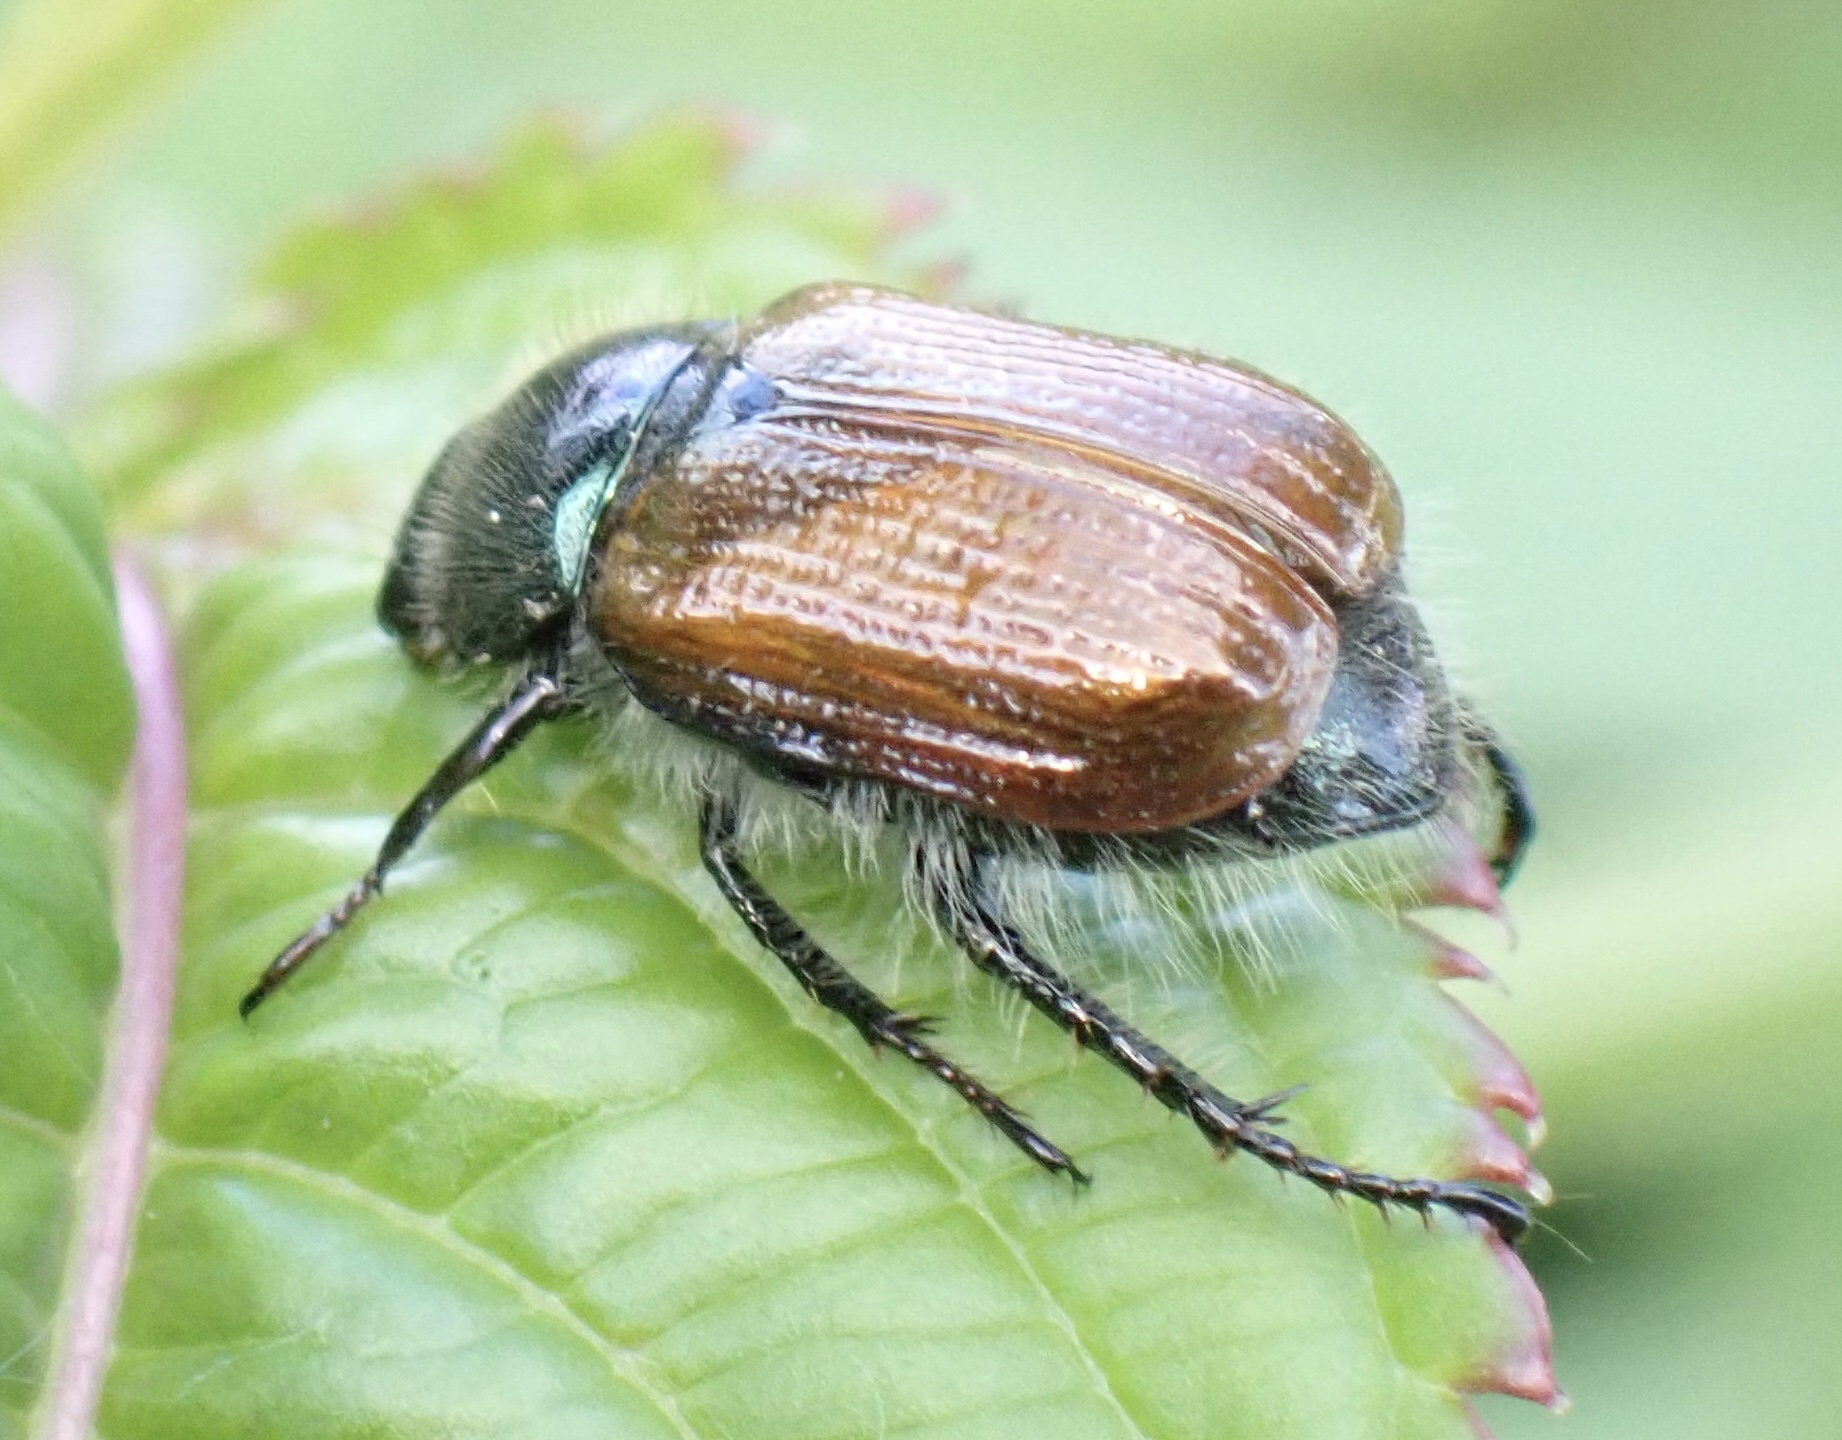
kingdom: Animalia
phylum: Arthropoda
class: Insecta
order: Coleoptera
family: Scarabaeidae
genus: Phyllopertha
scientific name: Phyllopertha horticola
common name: Garden chafer
